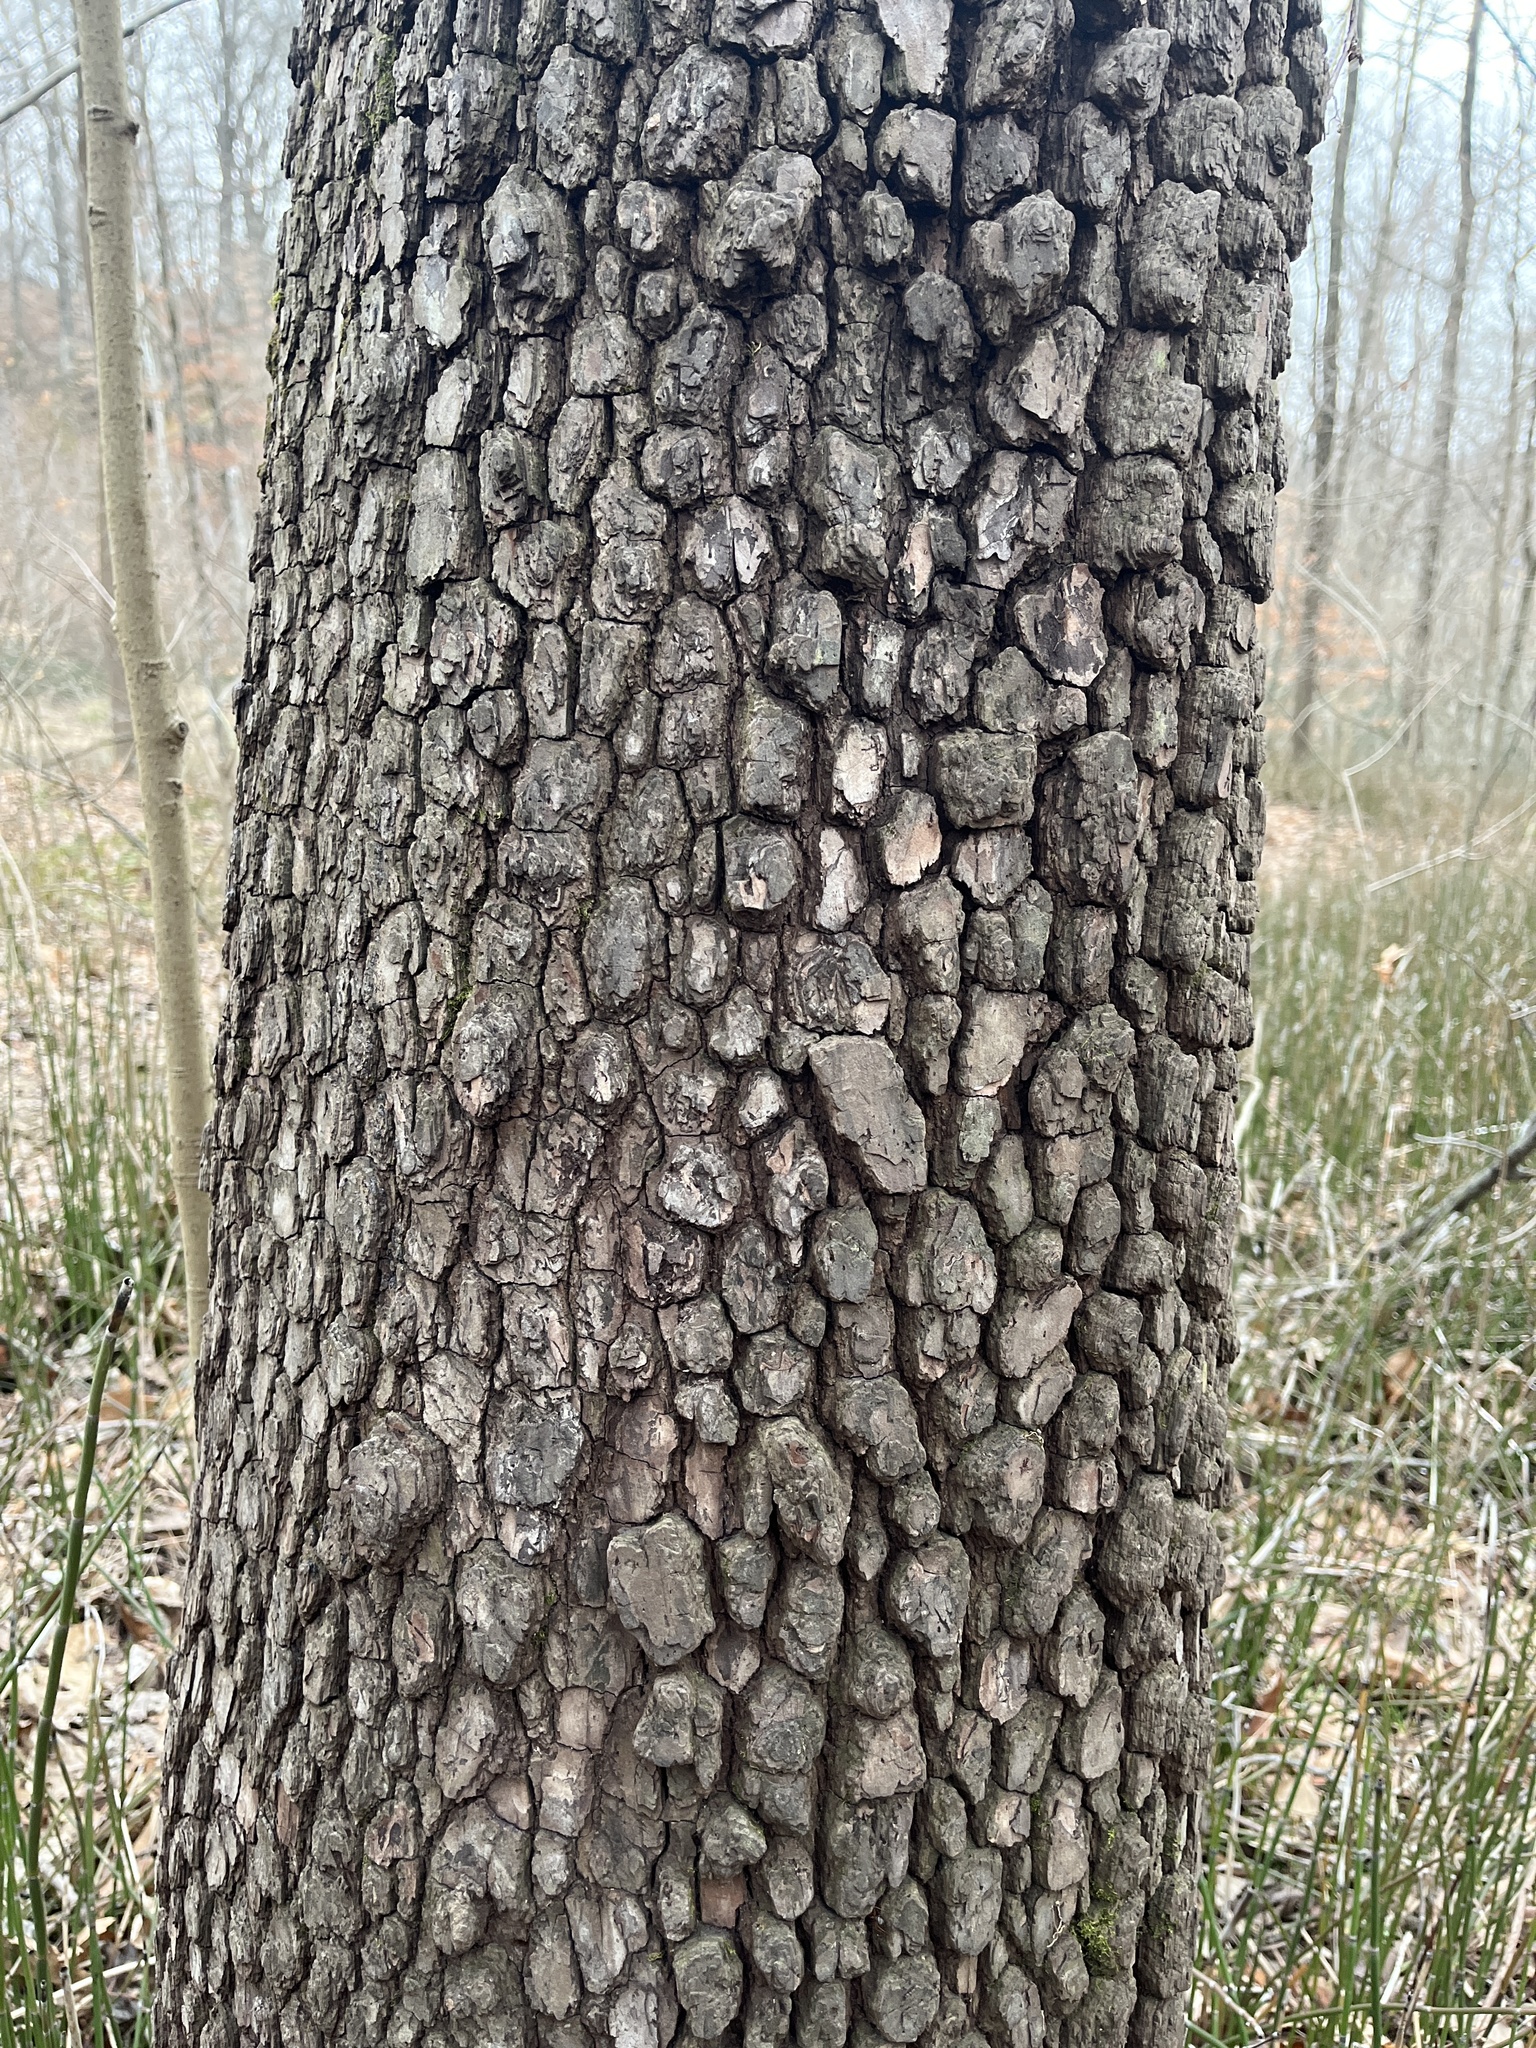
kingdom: Plantae
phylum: Tracheophyta
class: Magnoliopsida
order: Ericales
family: Ebenaceae
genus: Diospyros
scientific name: Diospyros virginiana
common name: Persimmon
